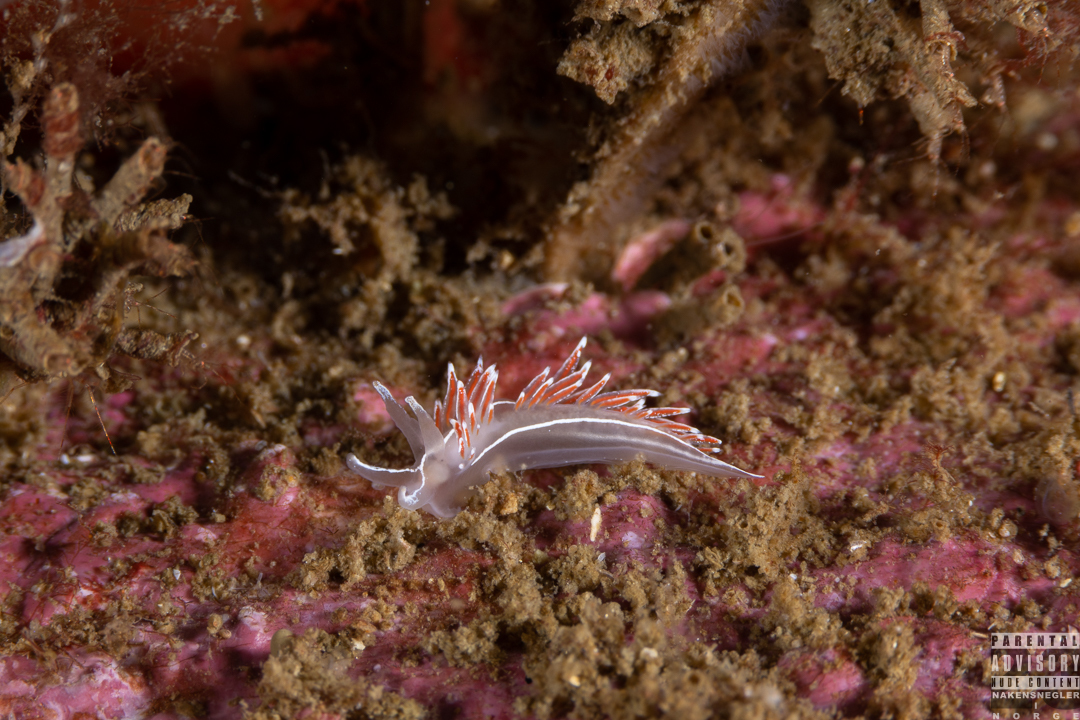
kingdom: Animalia
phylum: Mollusca
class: Gastropoda
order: Nudibranchia
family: Coryphellidae
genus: Coryphella
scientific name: Coryphella lineata
